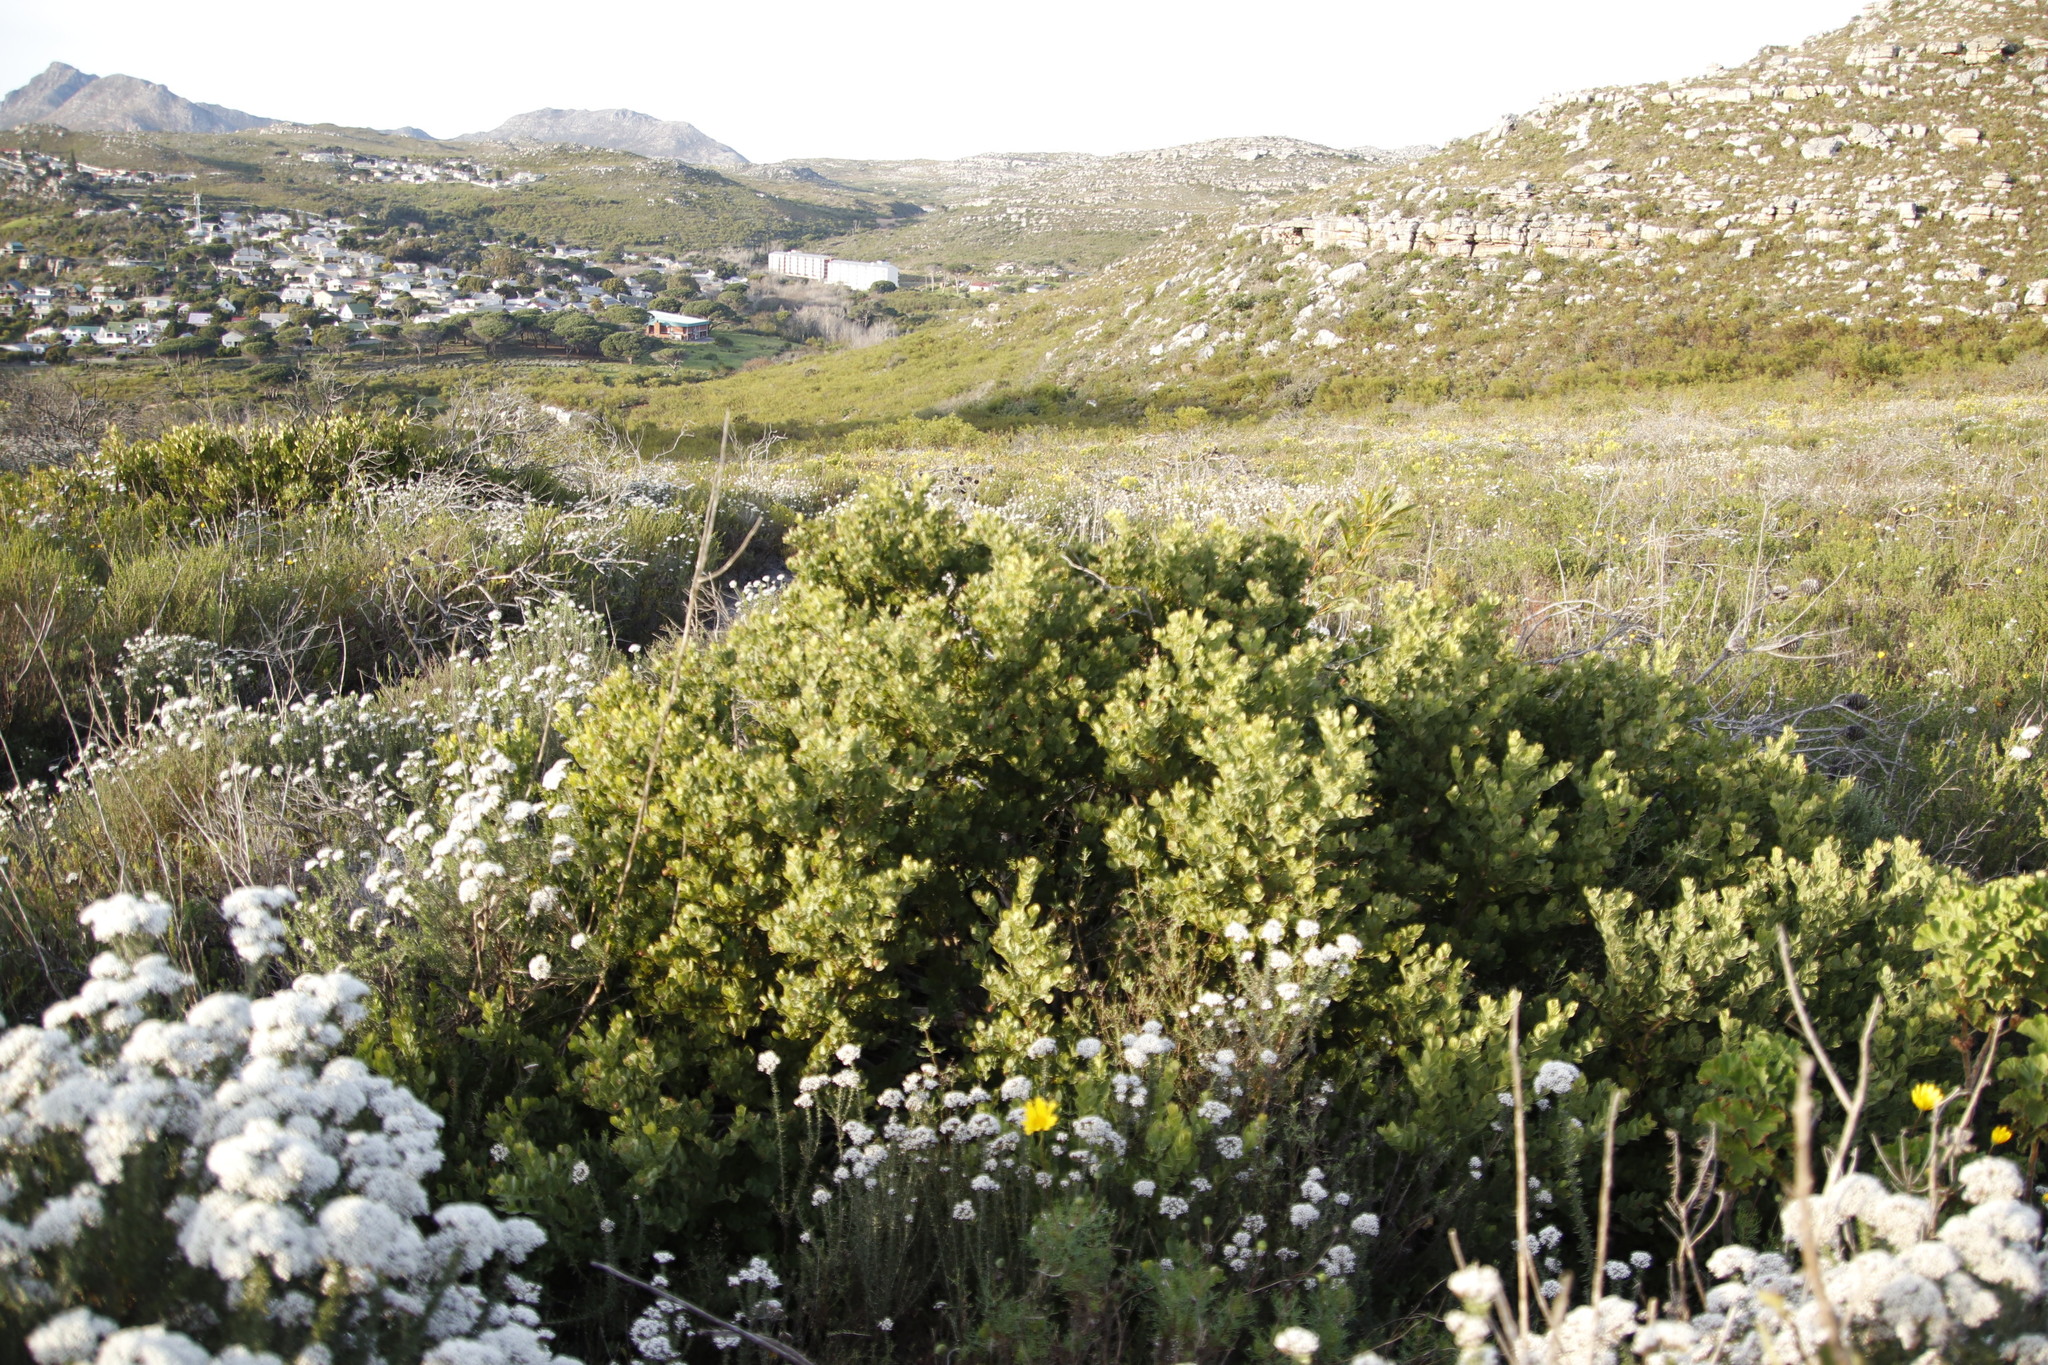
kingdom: Plantae
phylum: Tracheophyta
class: Magnoliopsida
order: Santalales
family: Santalaceae
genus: Osyris
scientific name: Osyris compressa
